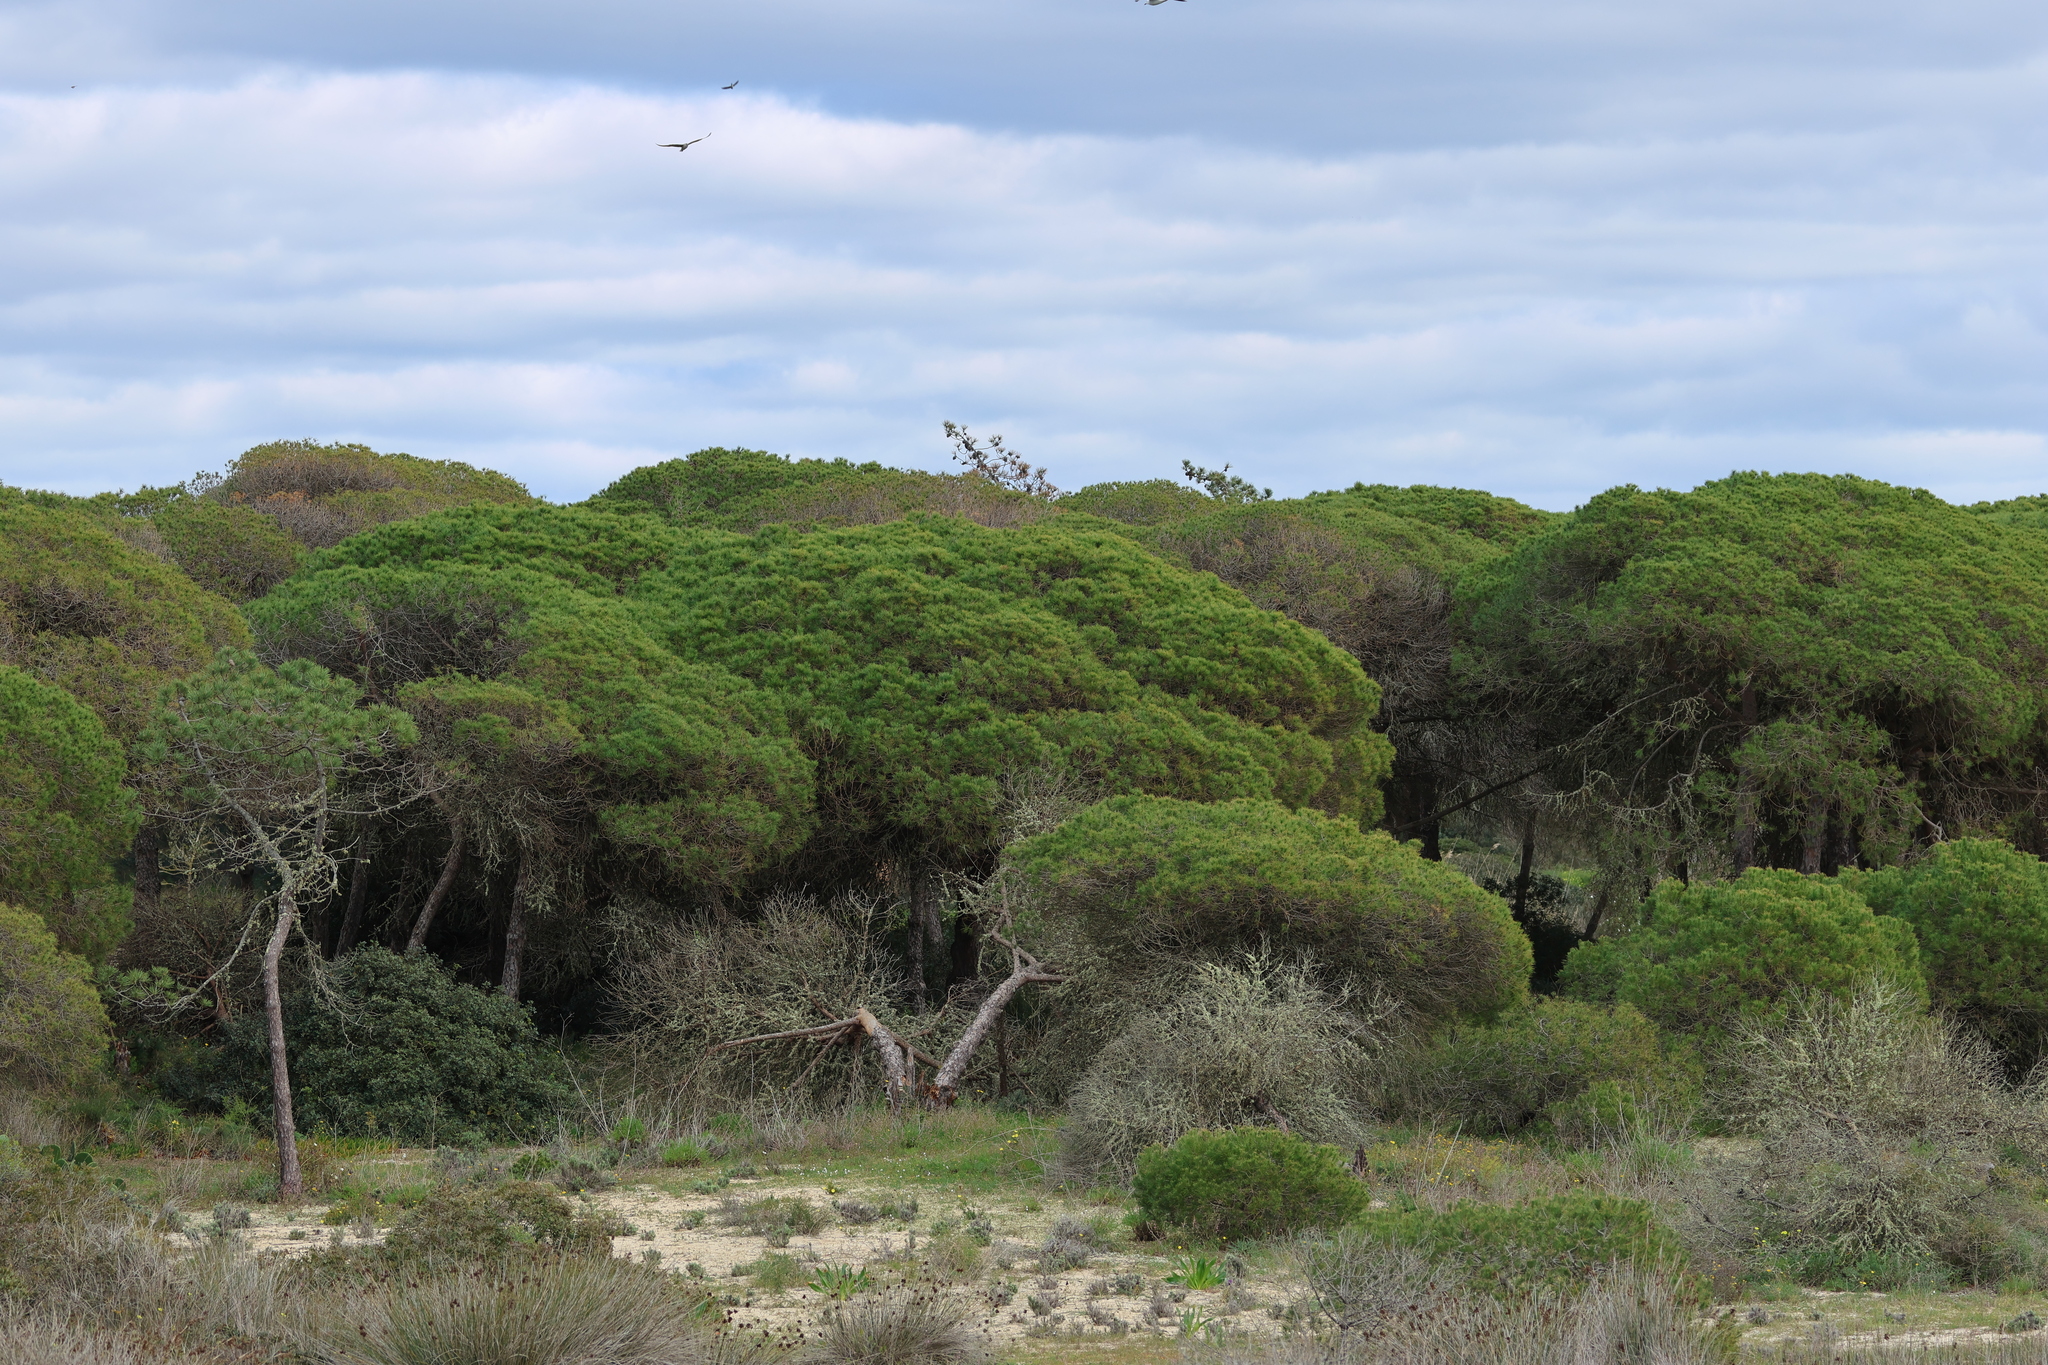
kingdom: Plantae
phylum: Tracheophyta
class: Pinopsida
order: Pinales
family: Pinaceae
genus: Pinus
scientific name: Pinus pinea
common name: Italian stone pine
